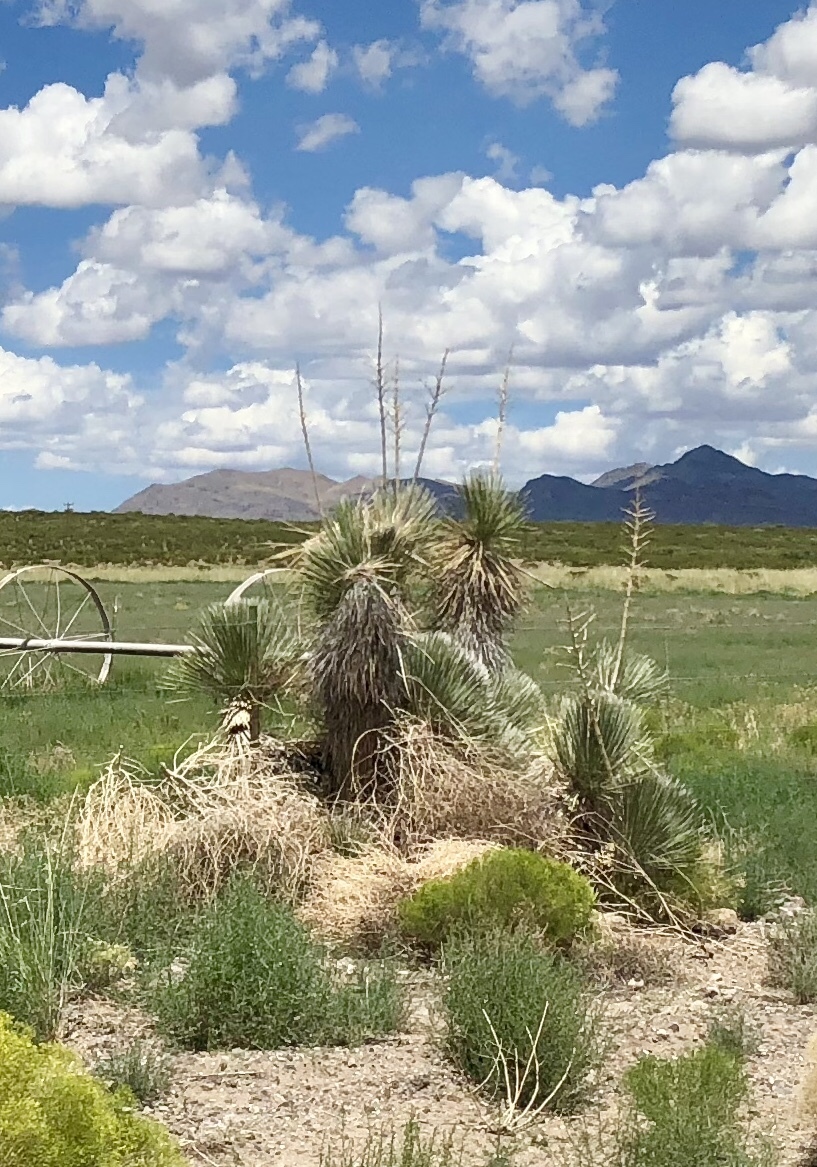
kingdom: Plantae
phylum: Tracheophyta
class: Liliopsida
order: Asparagales
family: Asparagaceae
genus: Yucca
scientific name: Yucca elata
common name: Palmella
